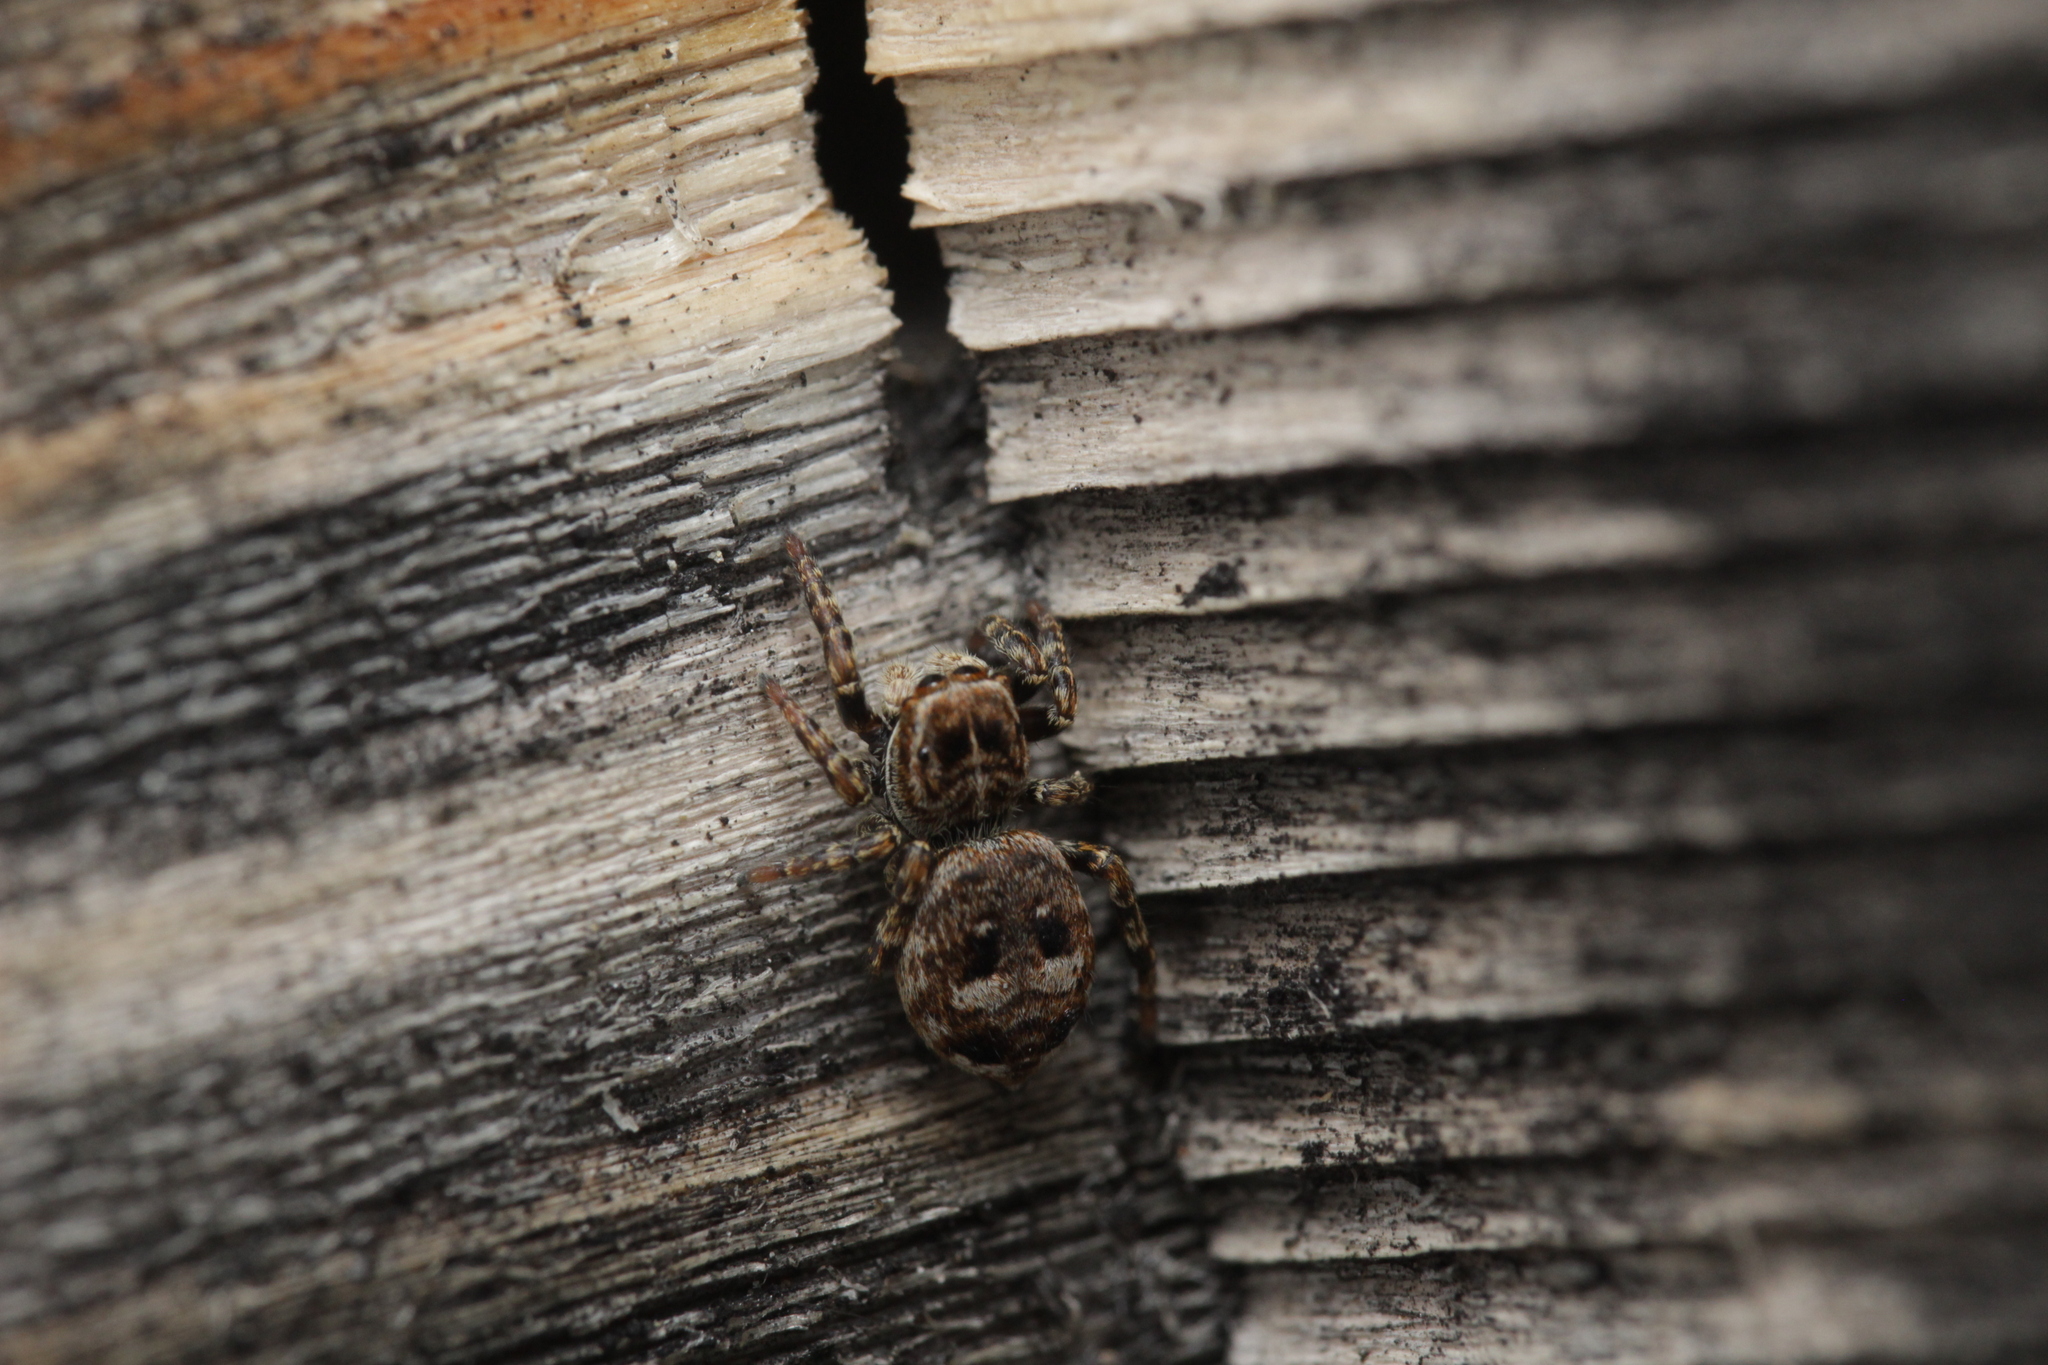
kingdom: Animalia
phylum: Arthropoda
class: Arachnida
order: Araneae
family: Salticidae
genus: Attulus
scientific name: Attulus rupicola
